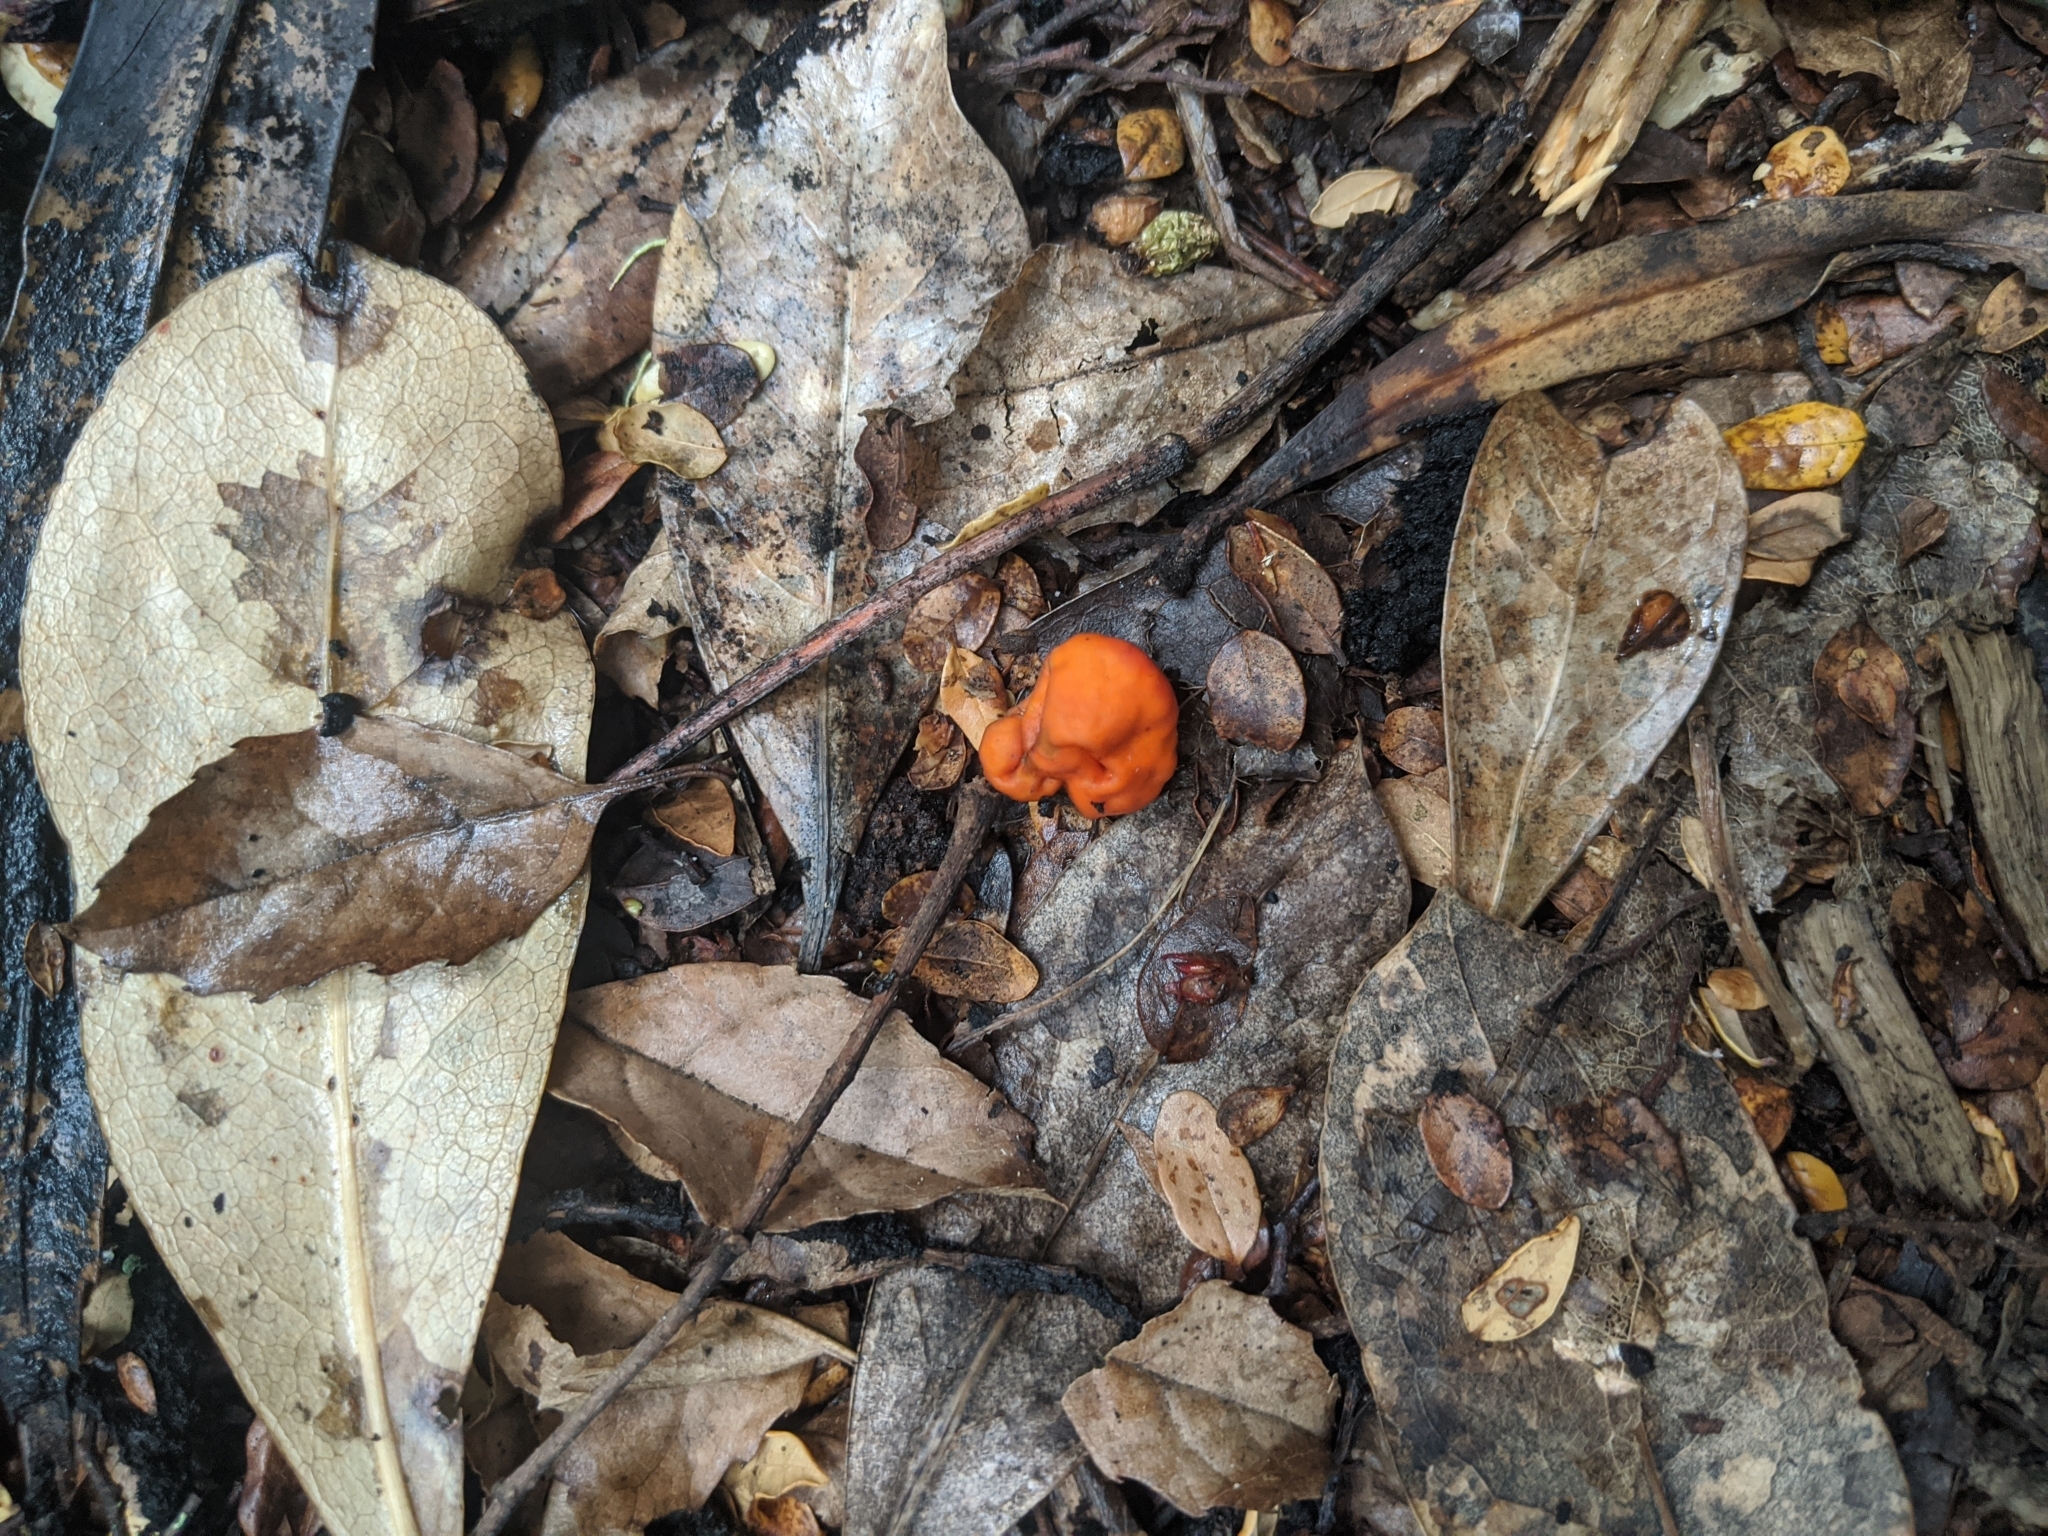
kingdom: Fungi
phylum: Ascomycota
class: Pezizomycetes
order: Pezizales
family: Pyronemataceae
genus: Paurocotylis
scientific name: Paurocotylis pila
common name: Scarlet berry truffle
